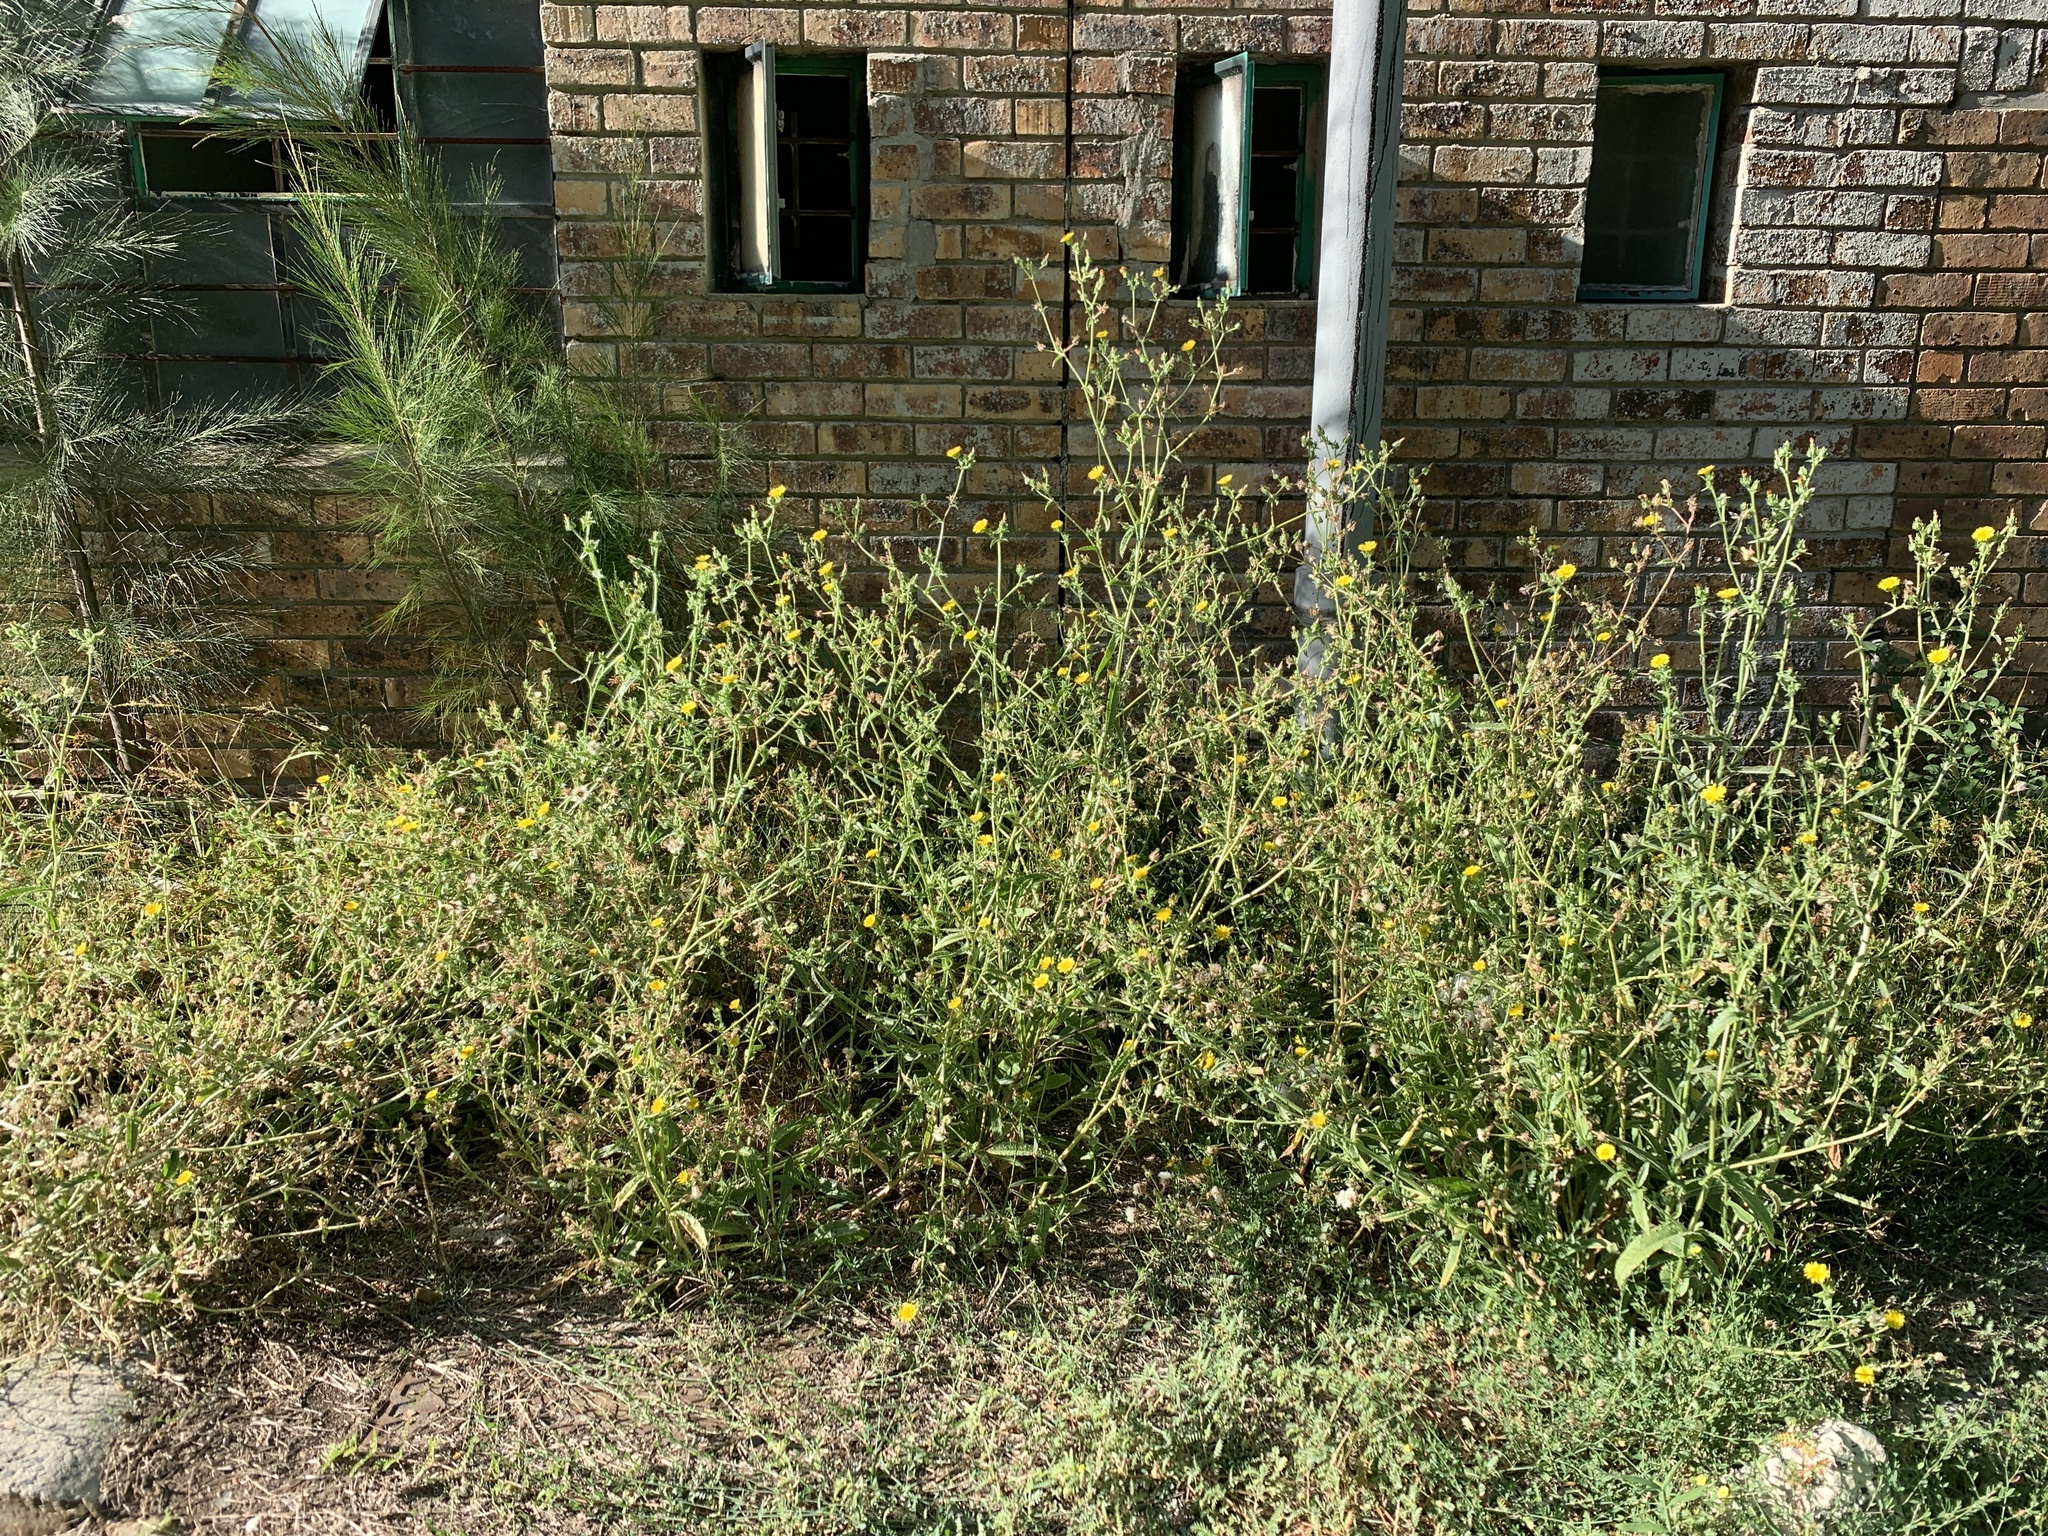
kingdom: Plantae
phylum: Tracheophyta
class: Magnoliopsida
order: Asterales
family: Asteraceae
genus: Helminthotheca
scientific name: Helminthotheca echioides
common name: Ox-tongue
